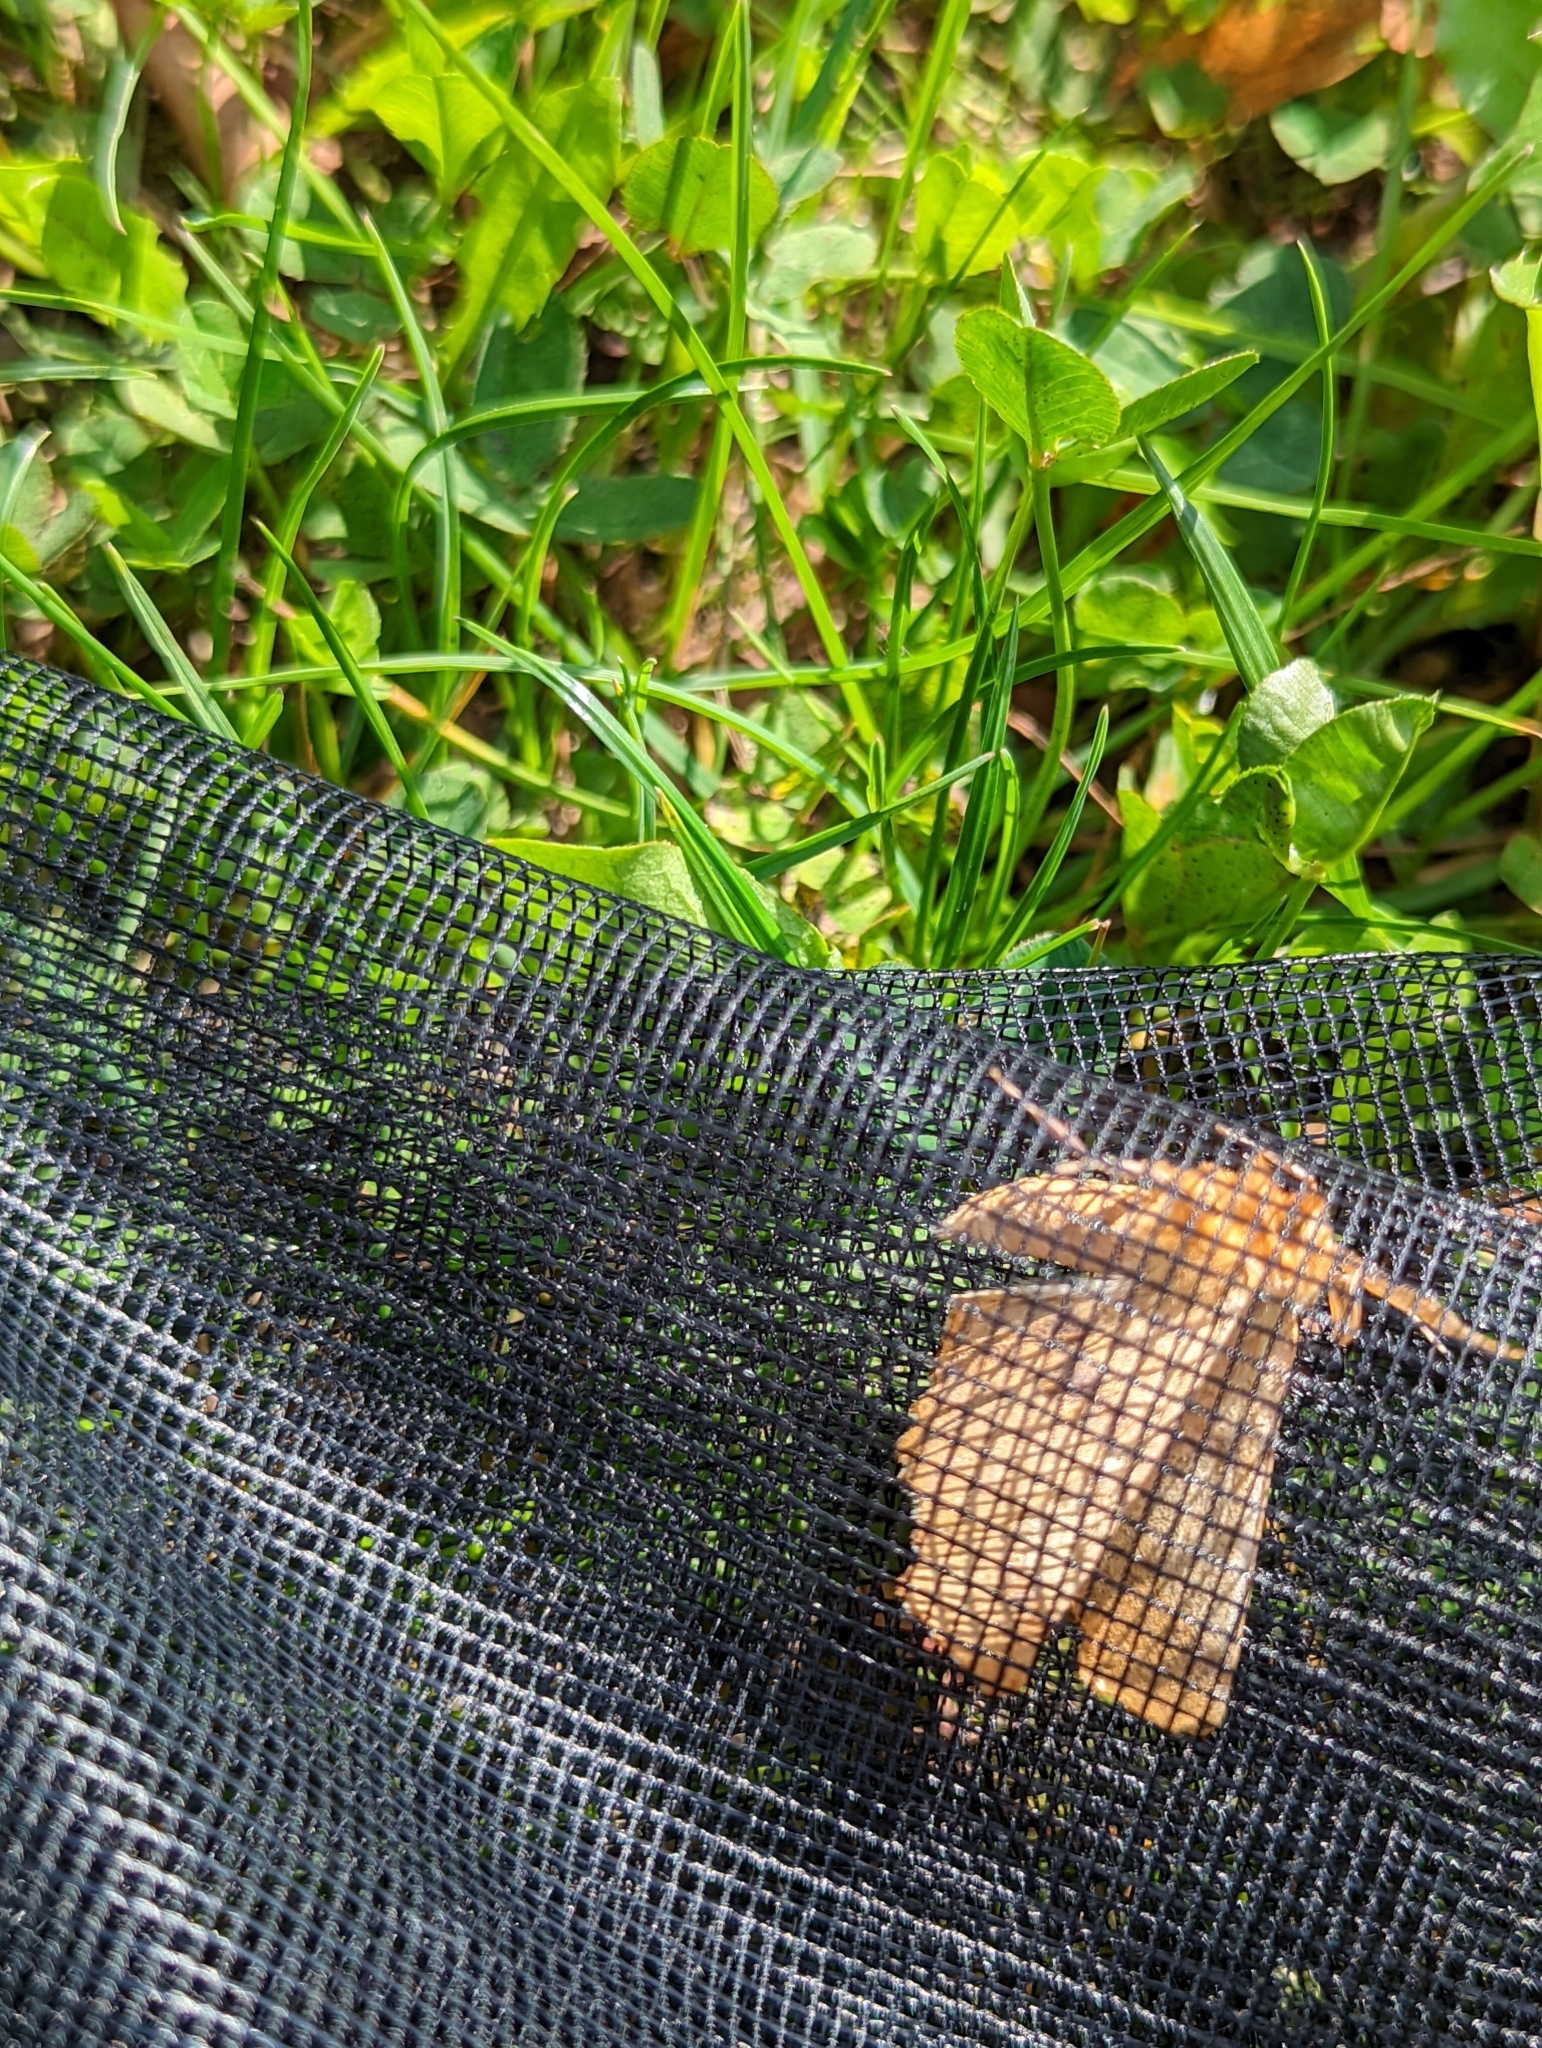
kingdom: Animalia
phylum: Arthropoda
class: Insecta
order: Lepidoptera
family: Geometridae
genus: Ennomos
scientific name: Ennomos autumnaria
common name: Large thorn
